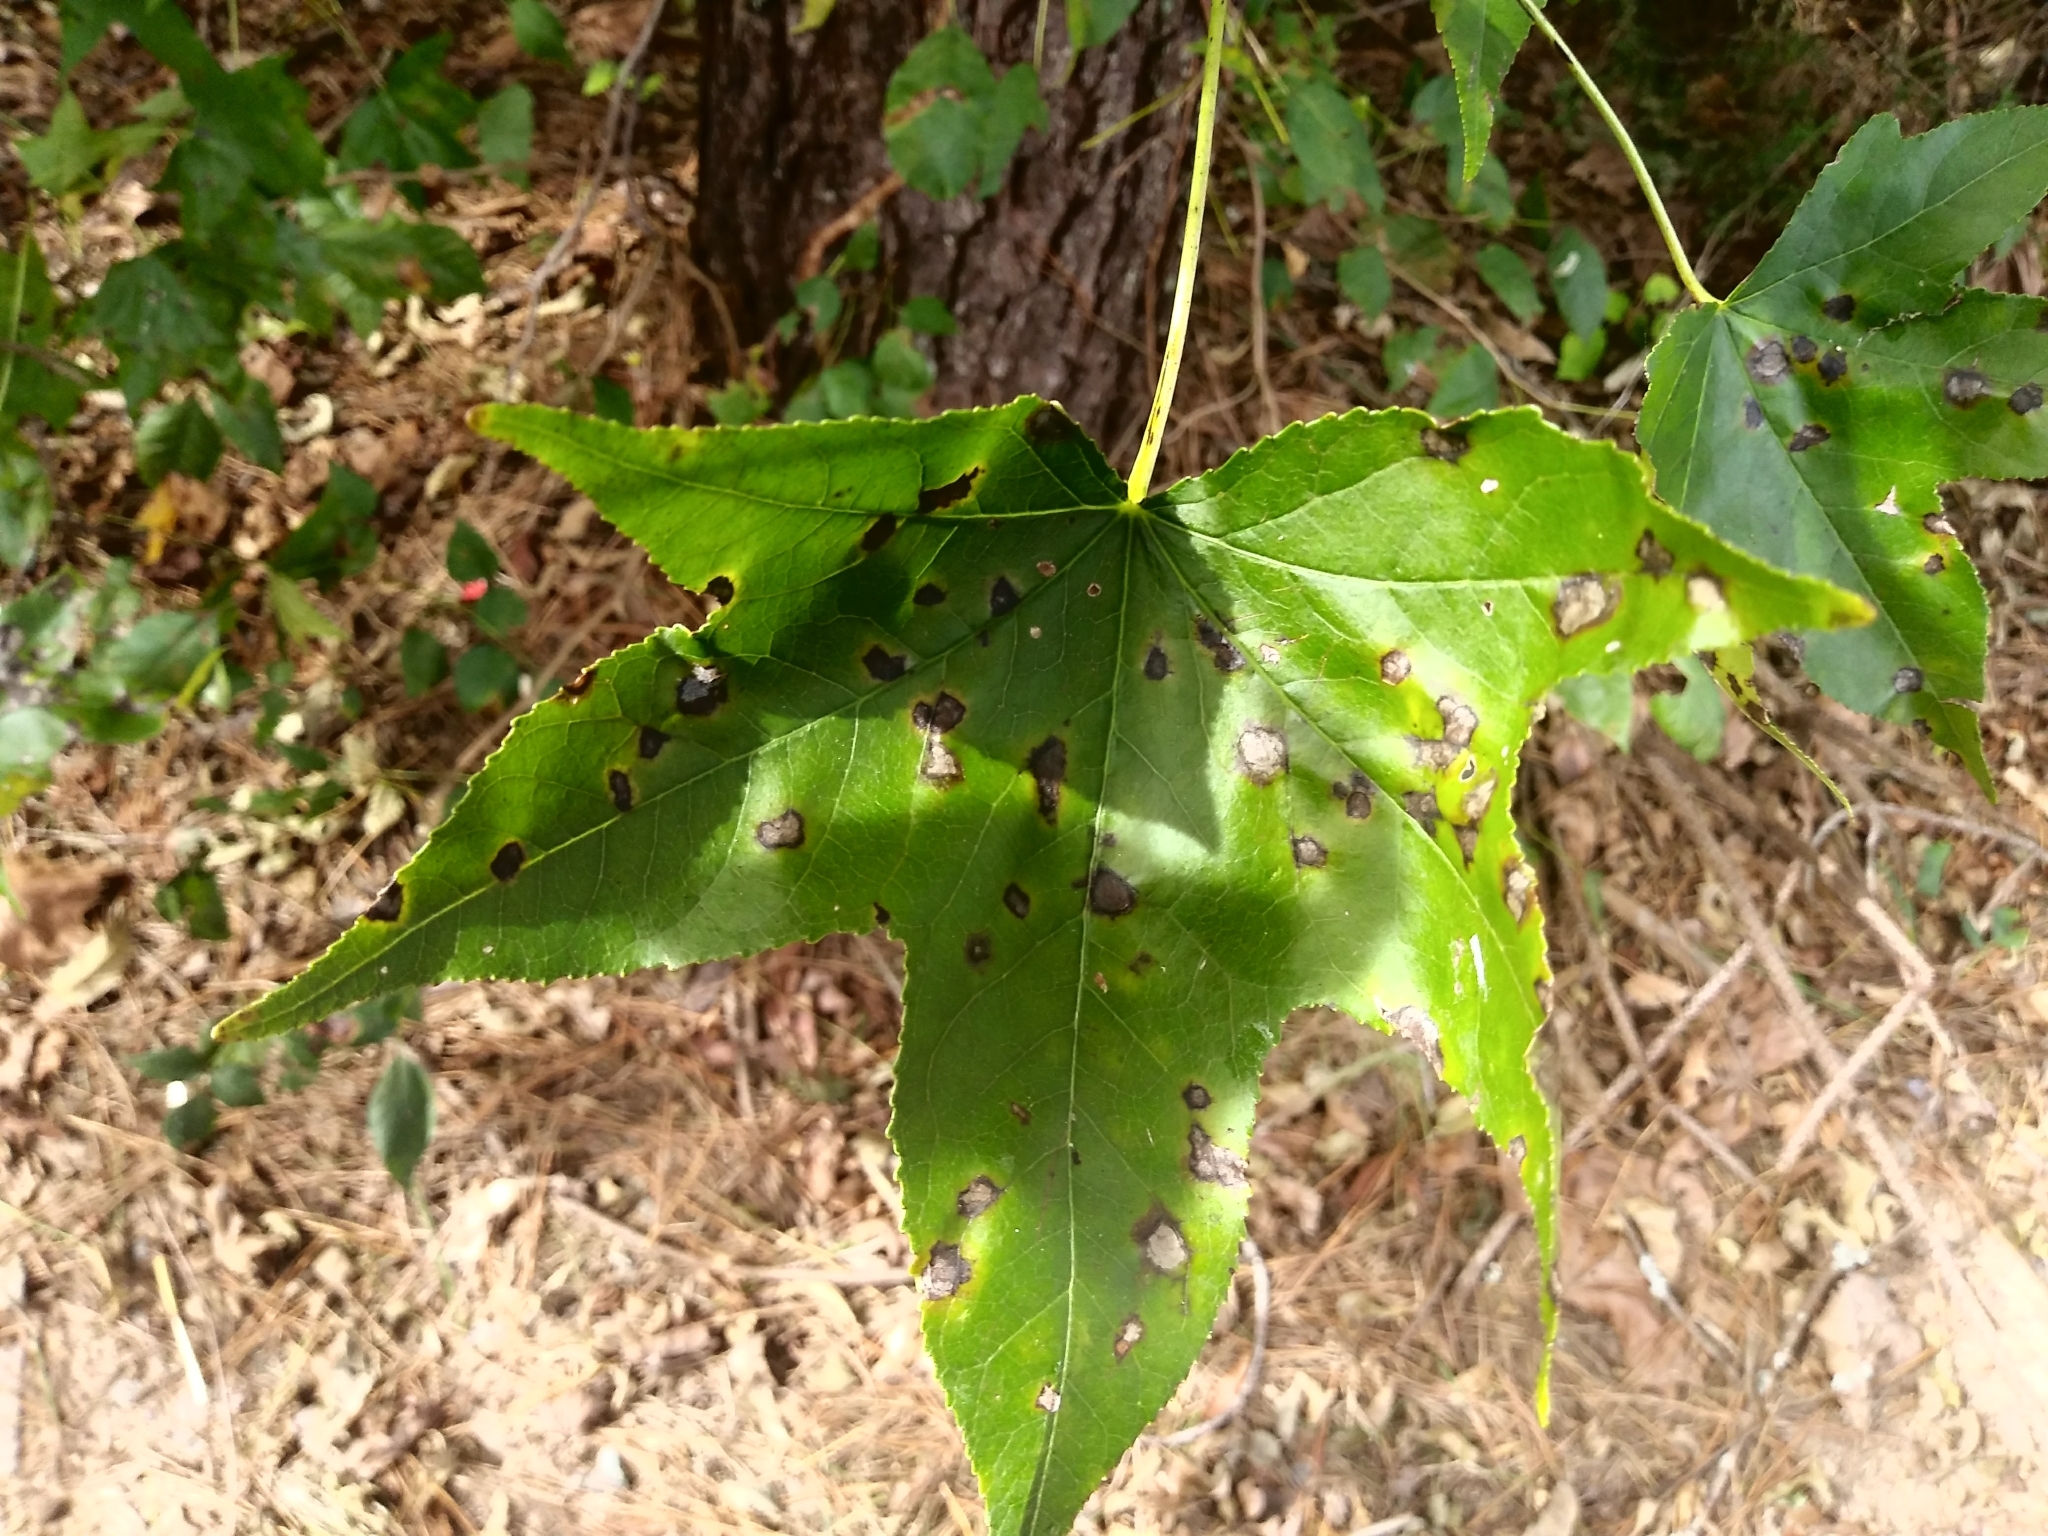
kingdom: Plantae
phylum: Tracheophyta
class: Magnoliopsida
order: Saxifragales
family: Altingiaceae
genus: Liquidambar
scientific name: Liquidambar styraciflua
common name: Sweet gum
